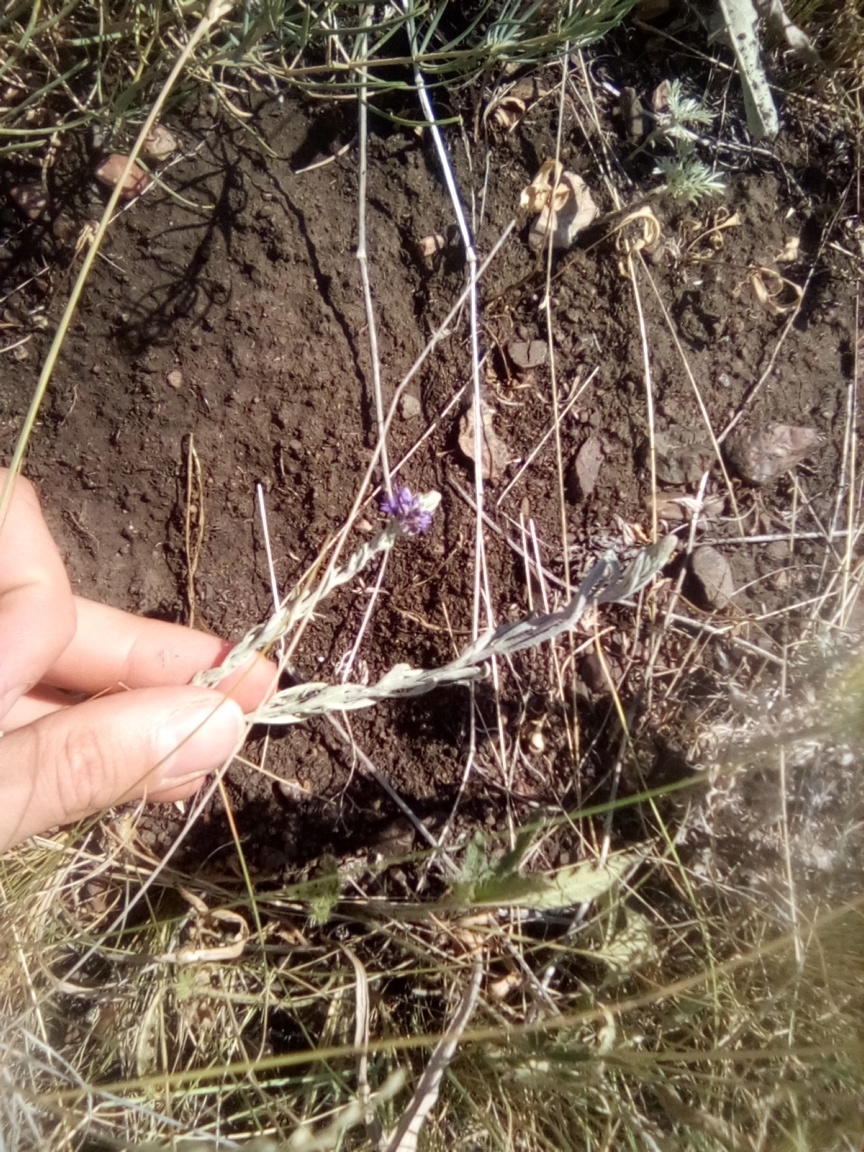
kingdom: Plantae
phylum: Tracheophyta
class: Magnoliopsida
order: Lamiales
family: Plantaginaceae
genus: Veronica
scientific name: Veronica incana
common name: Silver speedwell
